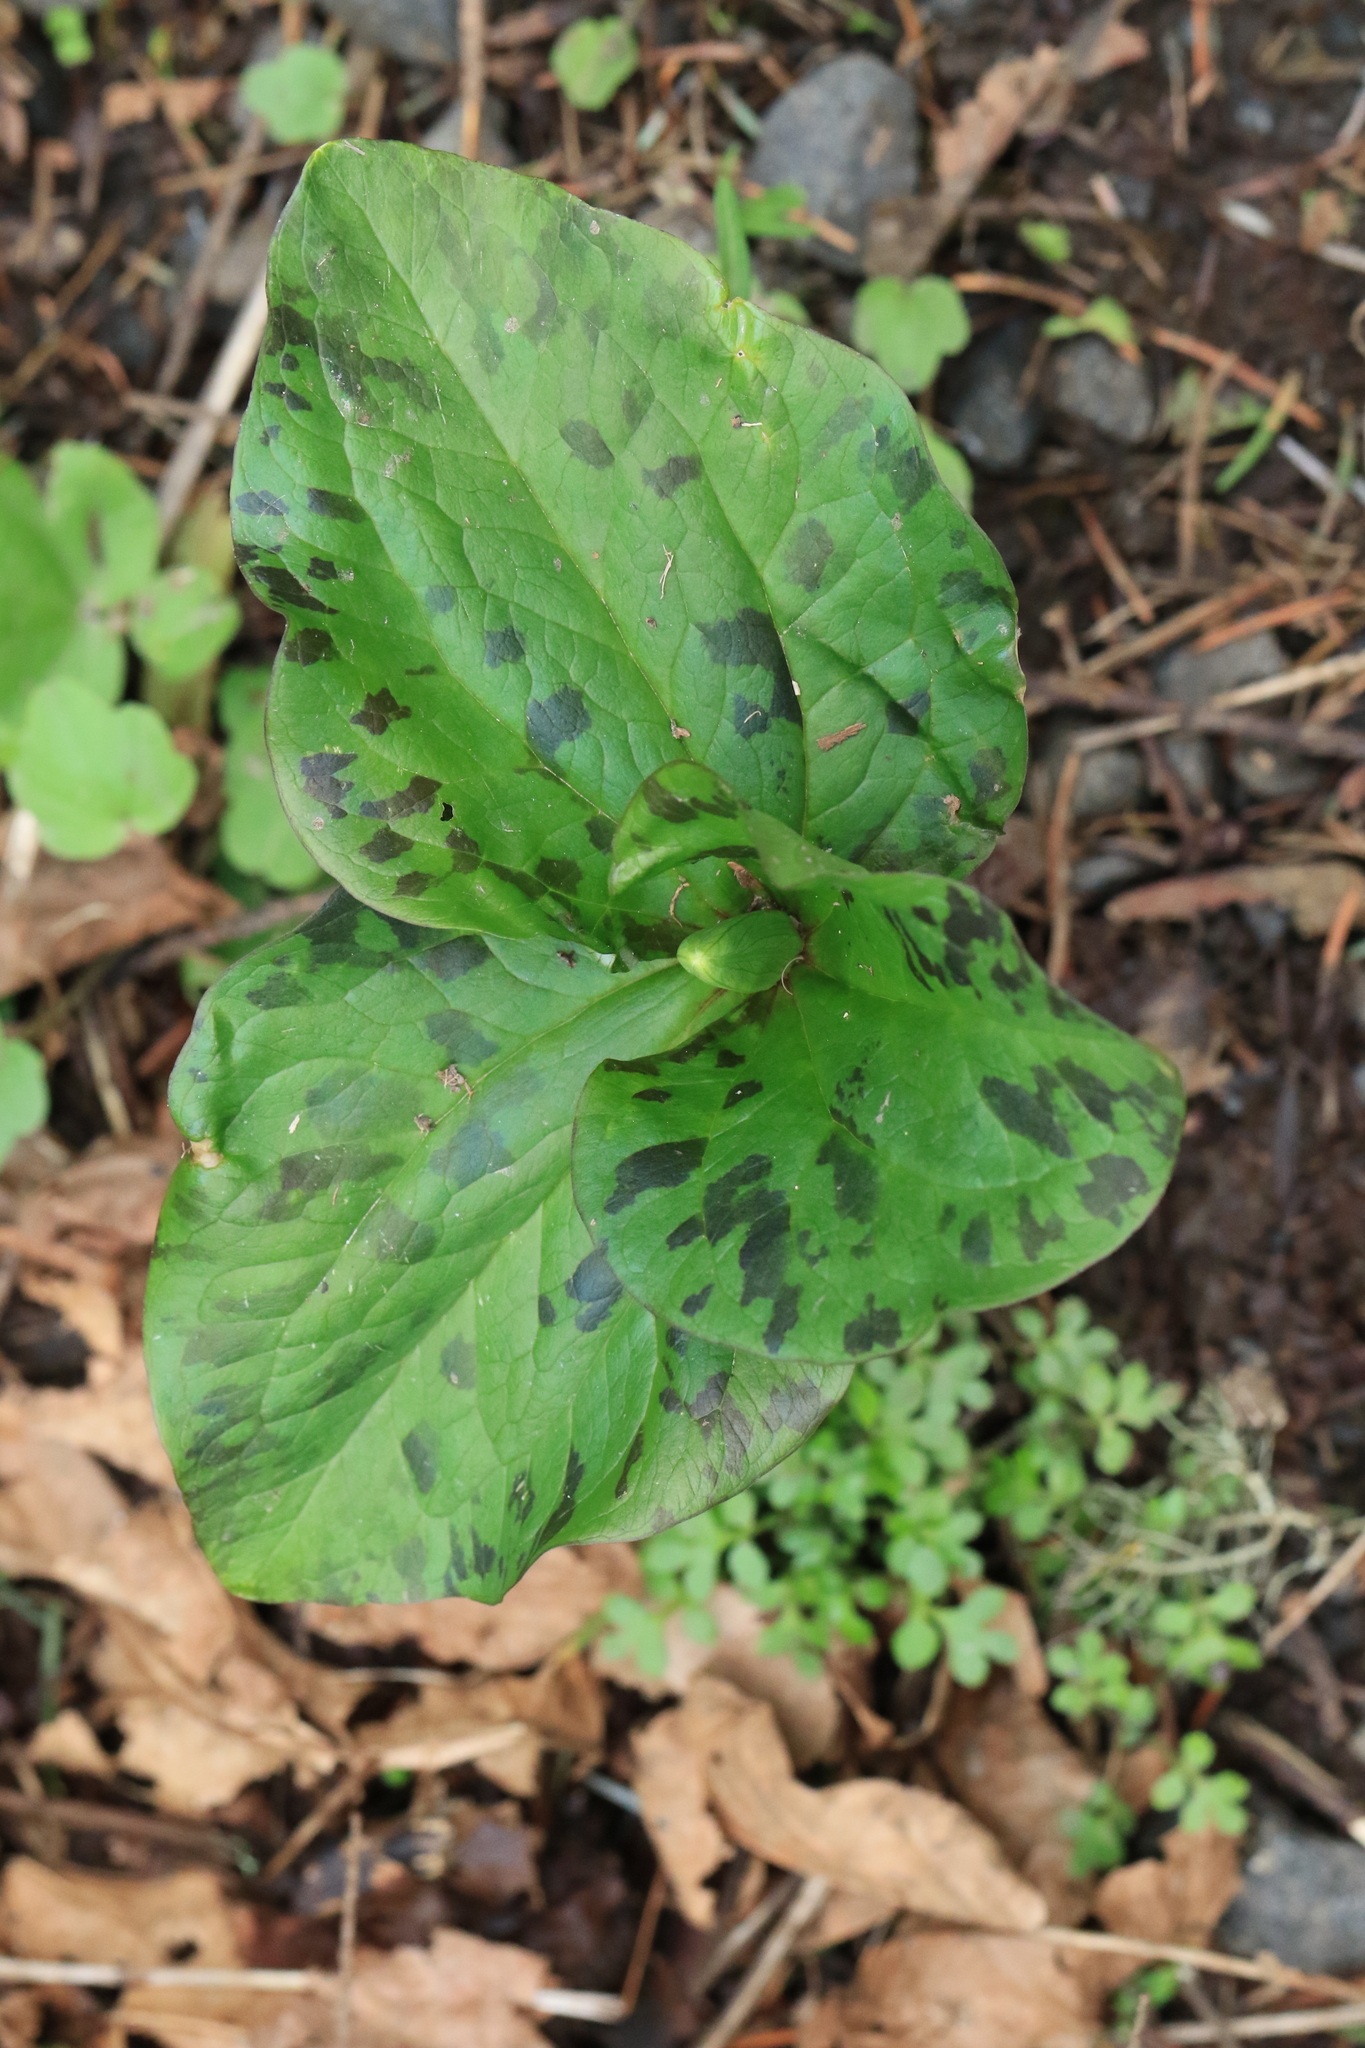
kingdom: Plantae
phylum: Tracheophyta
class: Liliopsida
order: Liliales
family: Melanthiaceae
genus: Trillium
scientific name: Trillium albidum
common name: Freeman's trillium
